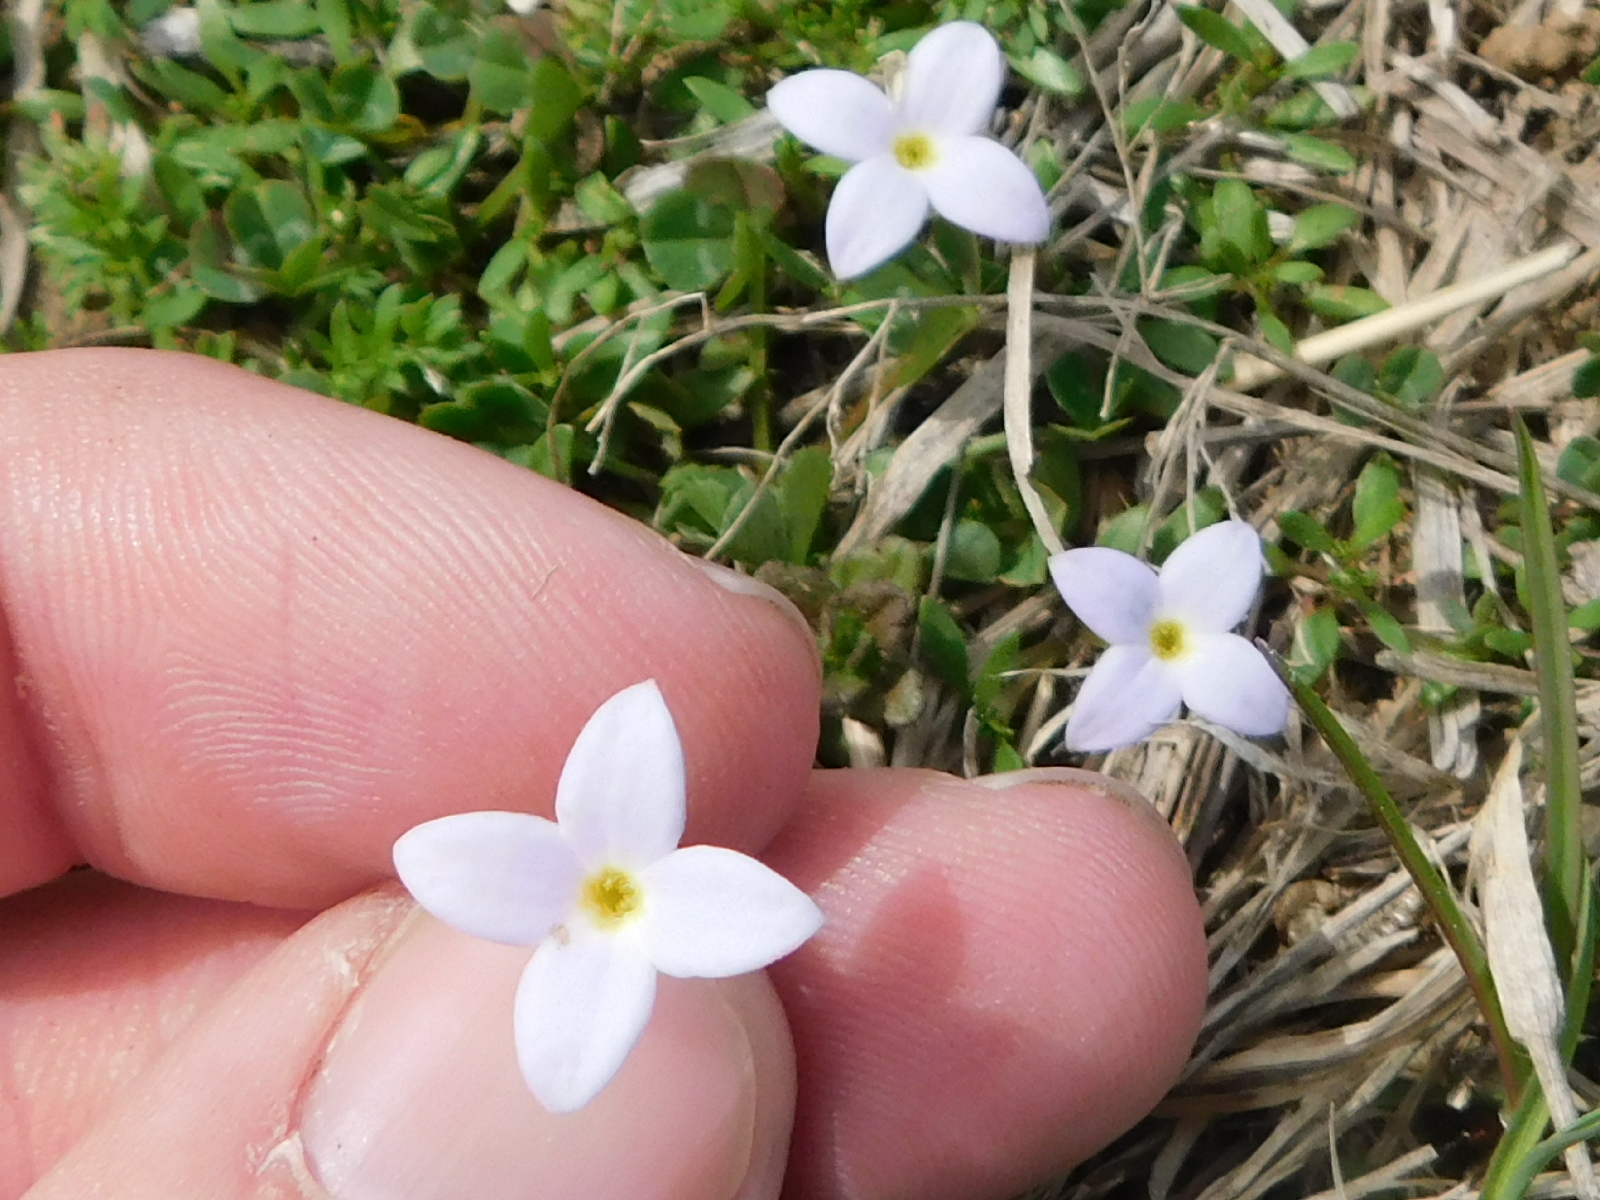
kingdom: Plantae
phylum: Tracheophyta
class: Magnoliopsida
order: Gentianales
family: Rubiaceae
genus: Houstonia
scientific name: Houstonia rosea
